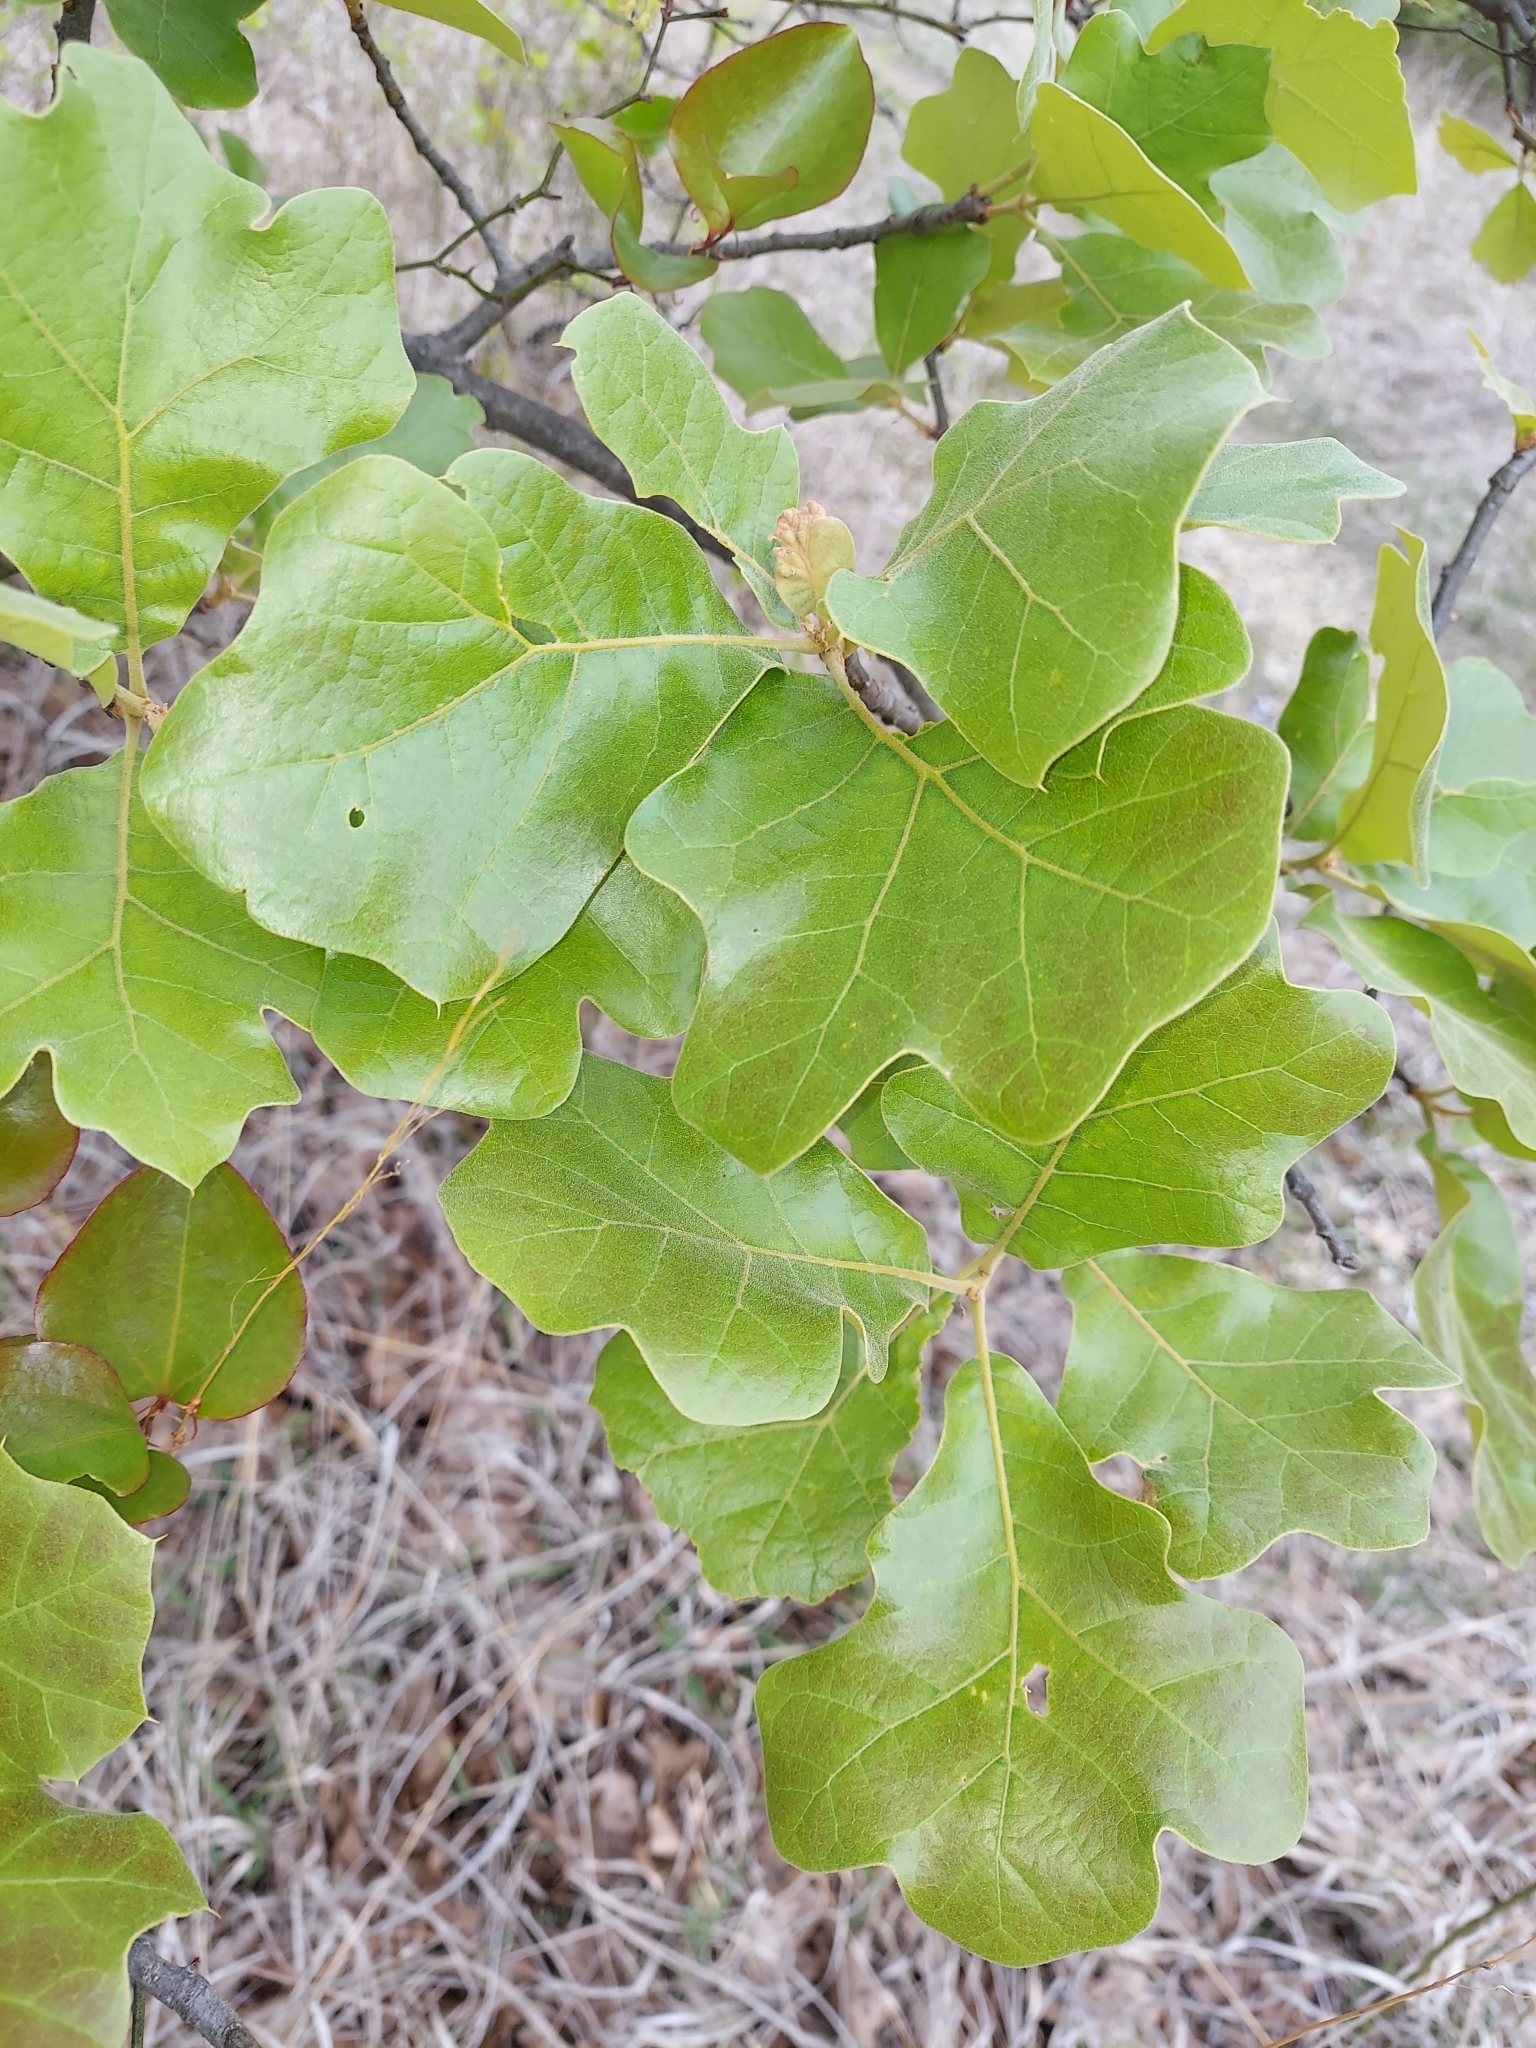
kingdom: Plantae
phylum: Tracheophyta
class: Magnoliopsida
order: Fagales
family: Fagaceae
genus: Quercus
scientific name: Quercus marilandica
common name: Blackjack oak
